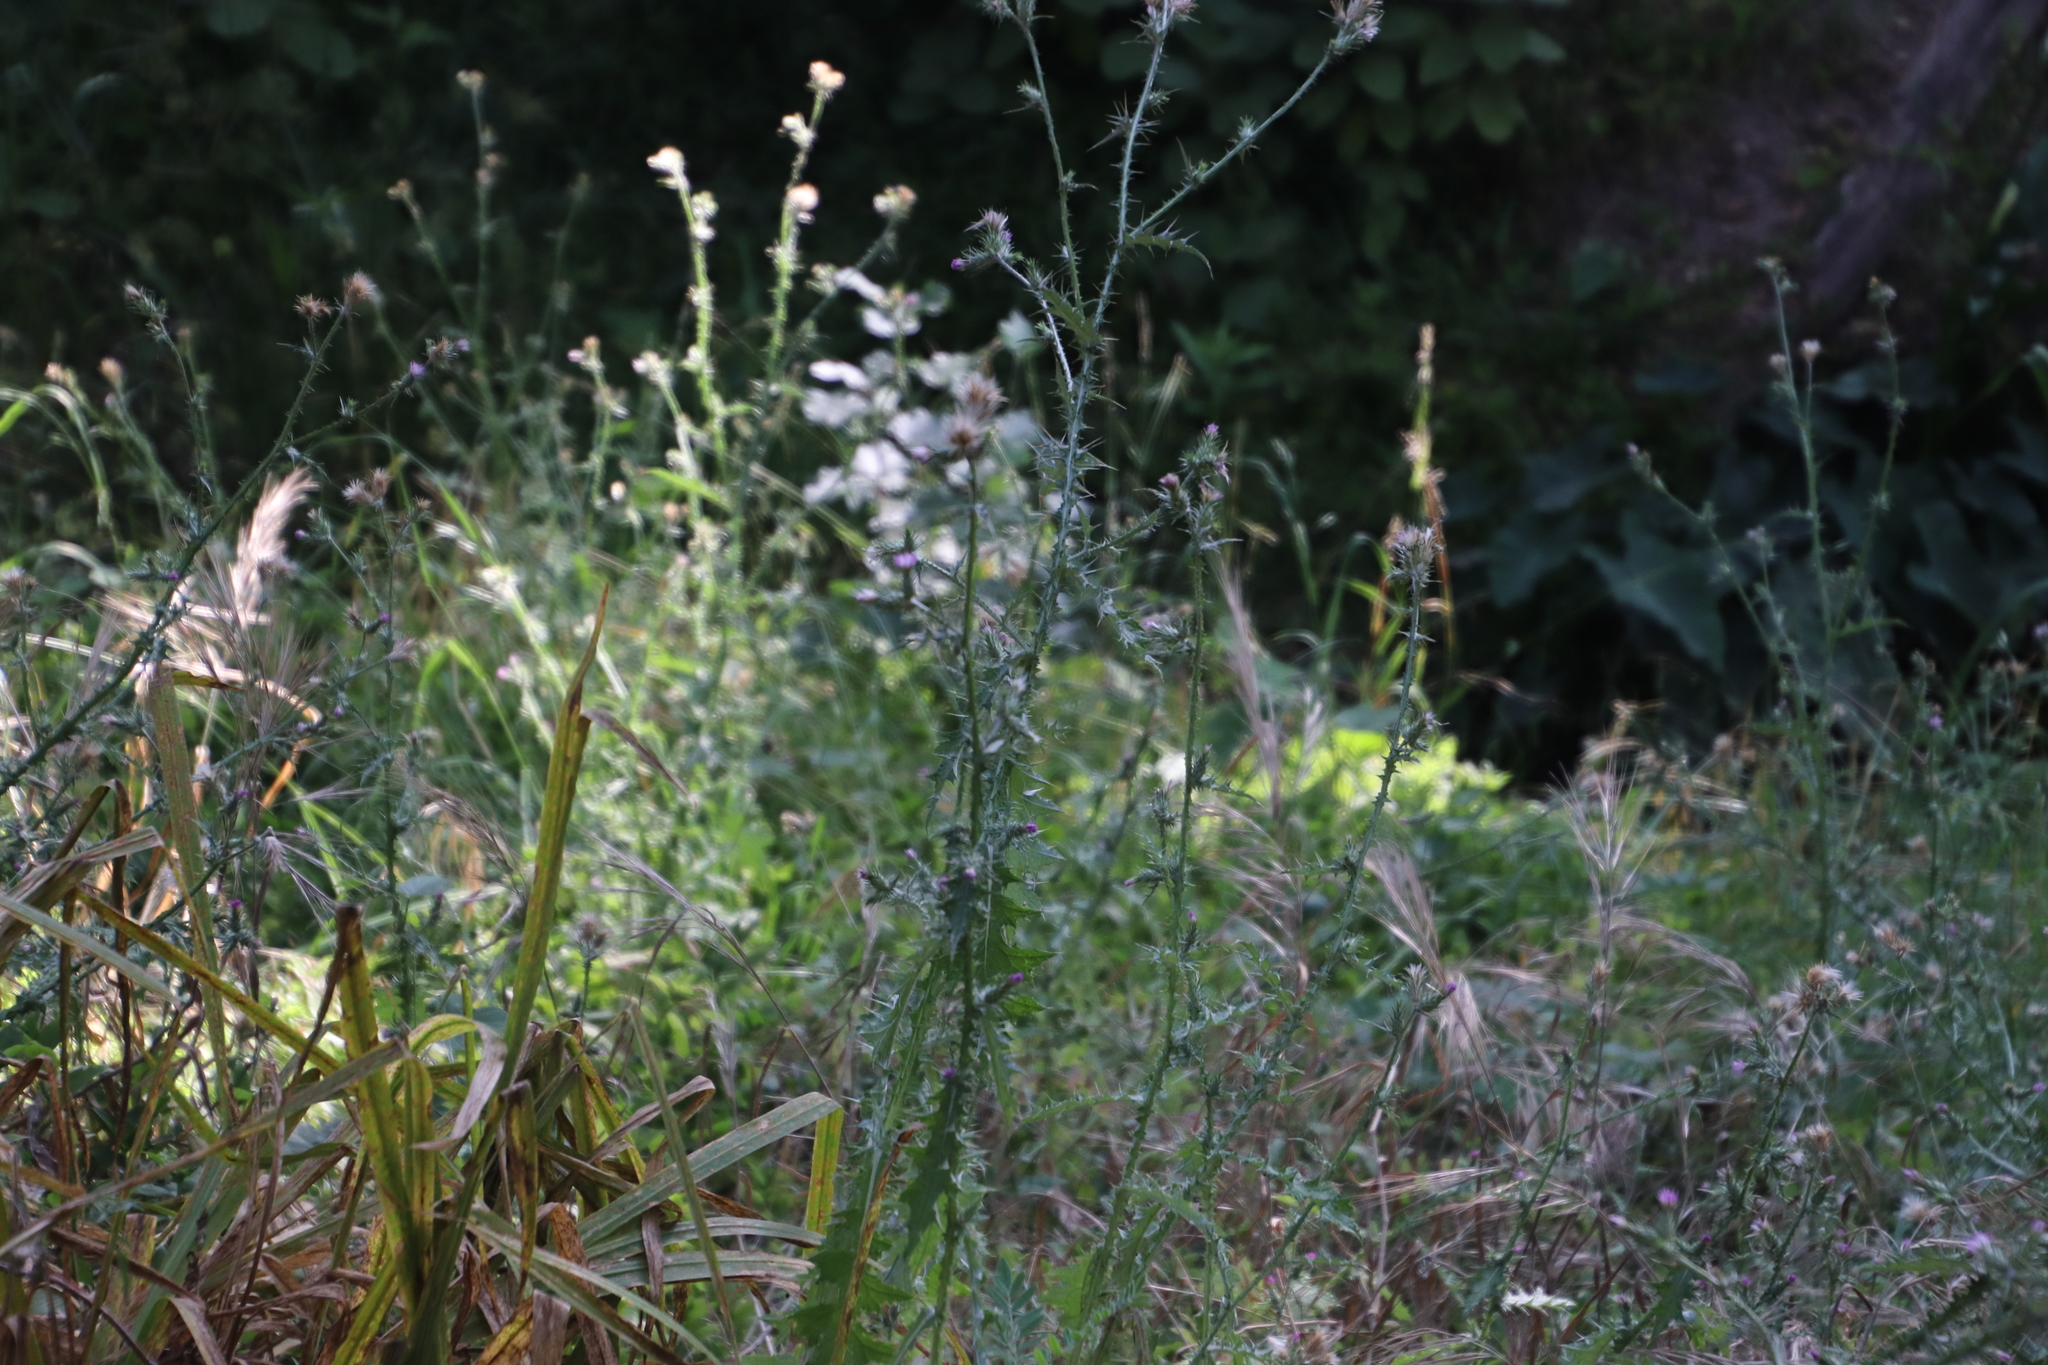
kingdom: Plantae
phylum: Tracheophyta
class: Magnoliopsida
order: Asterales
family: Asteraceae
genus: Carduus
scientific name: Carduus pycnocephalus
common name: Plymouth thistle
